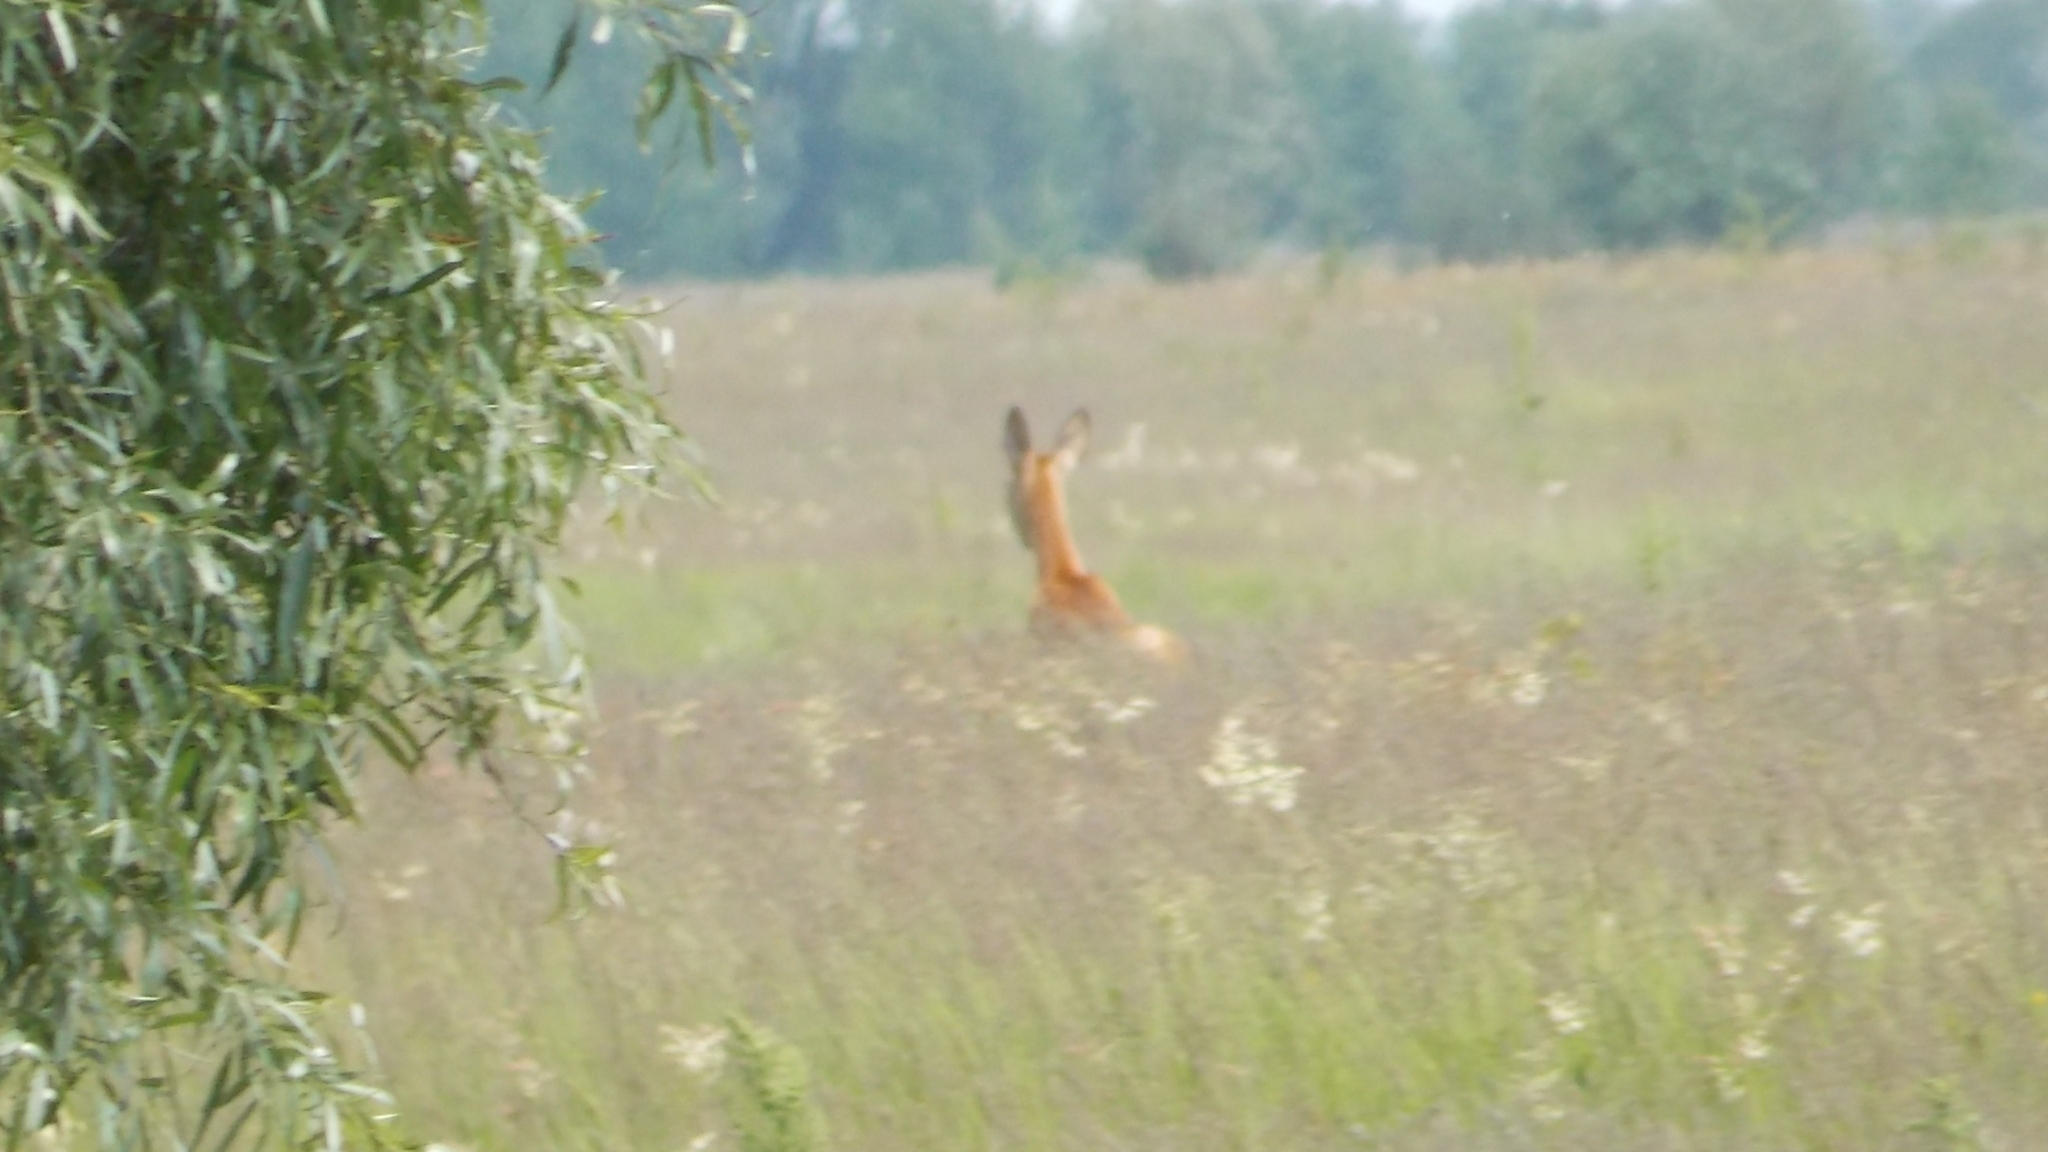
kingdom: Animalia
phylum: Chordata
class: Mammalia
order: Artiodactyla
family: Cervidae
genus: Capreolus
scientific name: Capreolus capreolus
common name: Western roe deer
